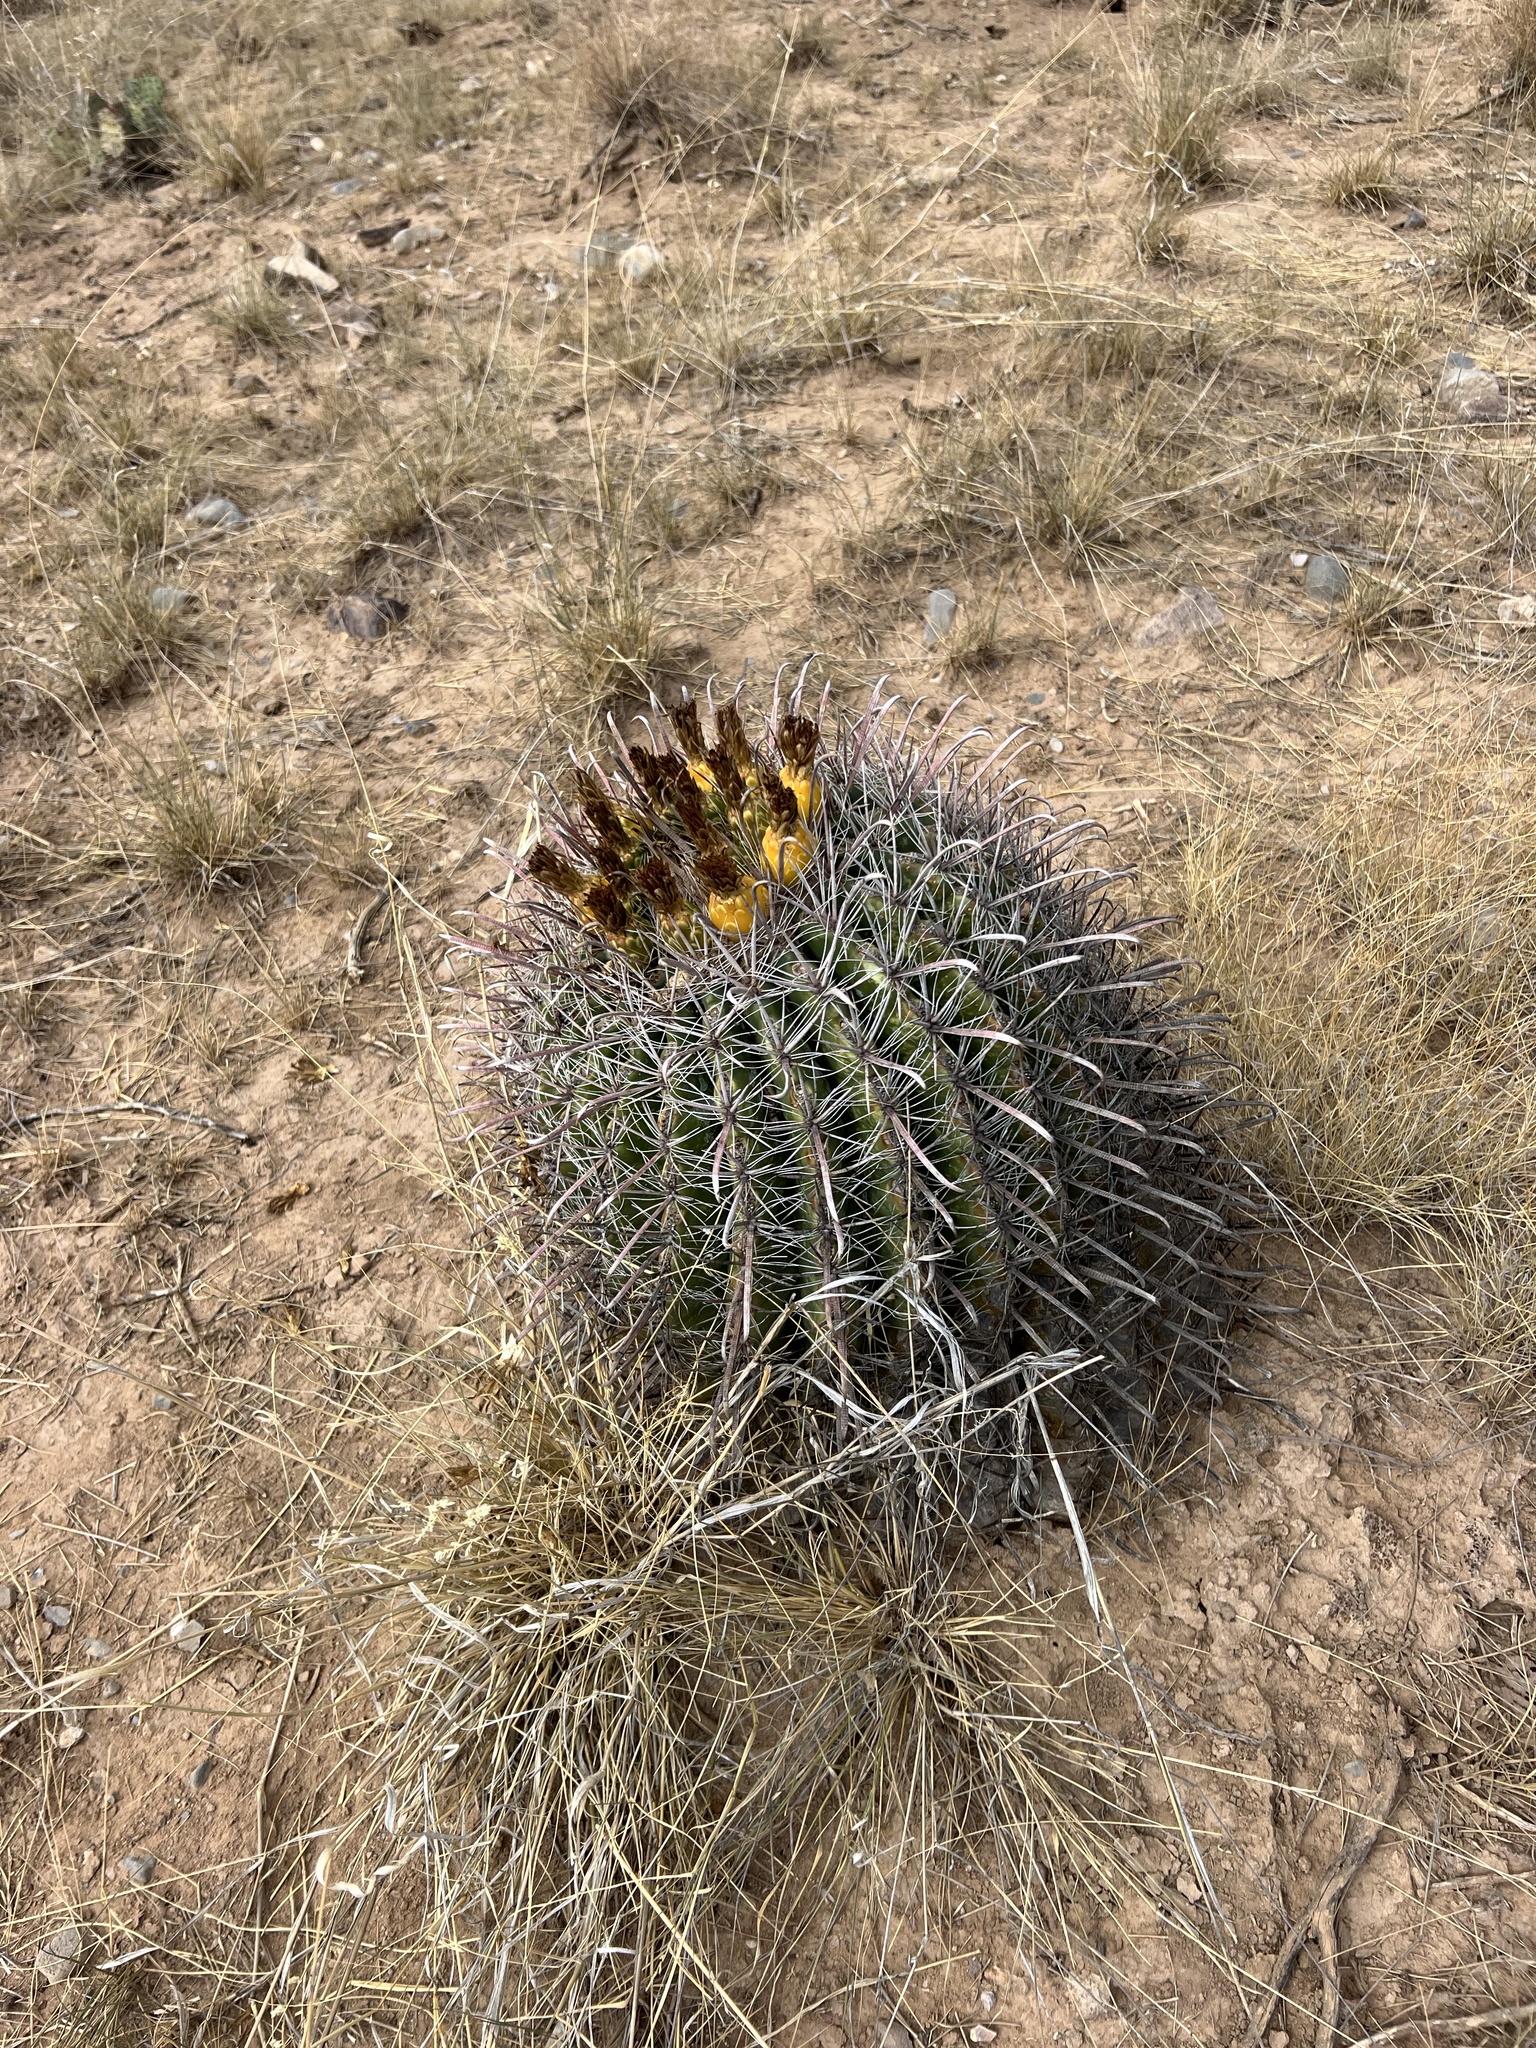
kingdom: Plantae
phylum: Tracheophyta
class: Magnoliopsida
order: Caryophyllales
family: Cactaceae
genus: Ferocactus
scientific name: Ferocactus wislizeni
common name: Candy barrel cactus
